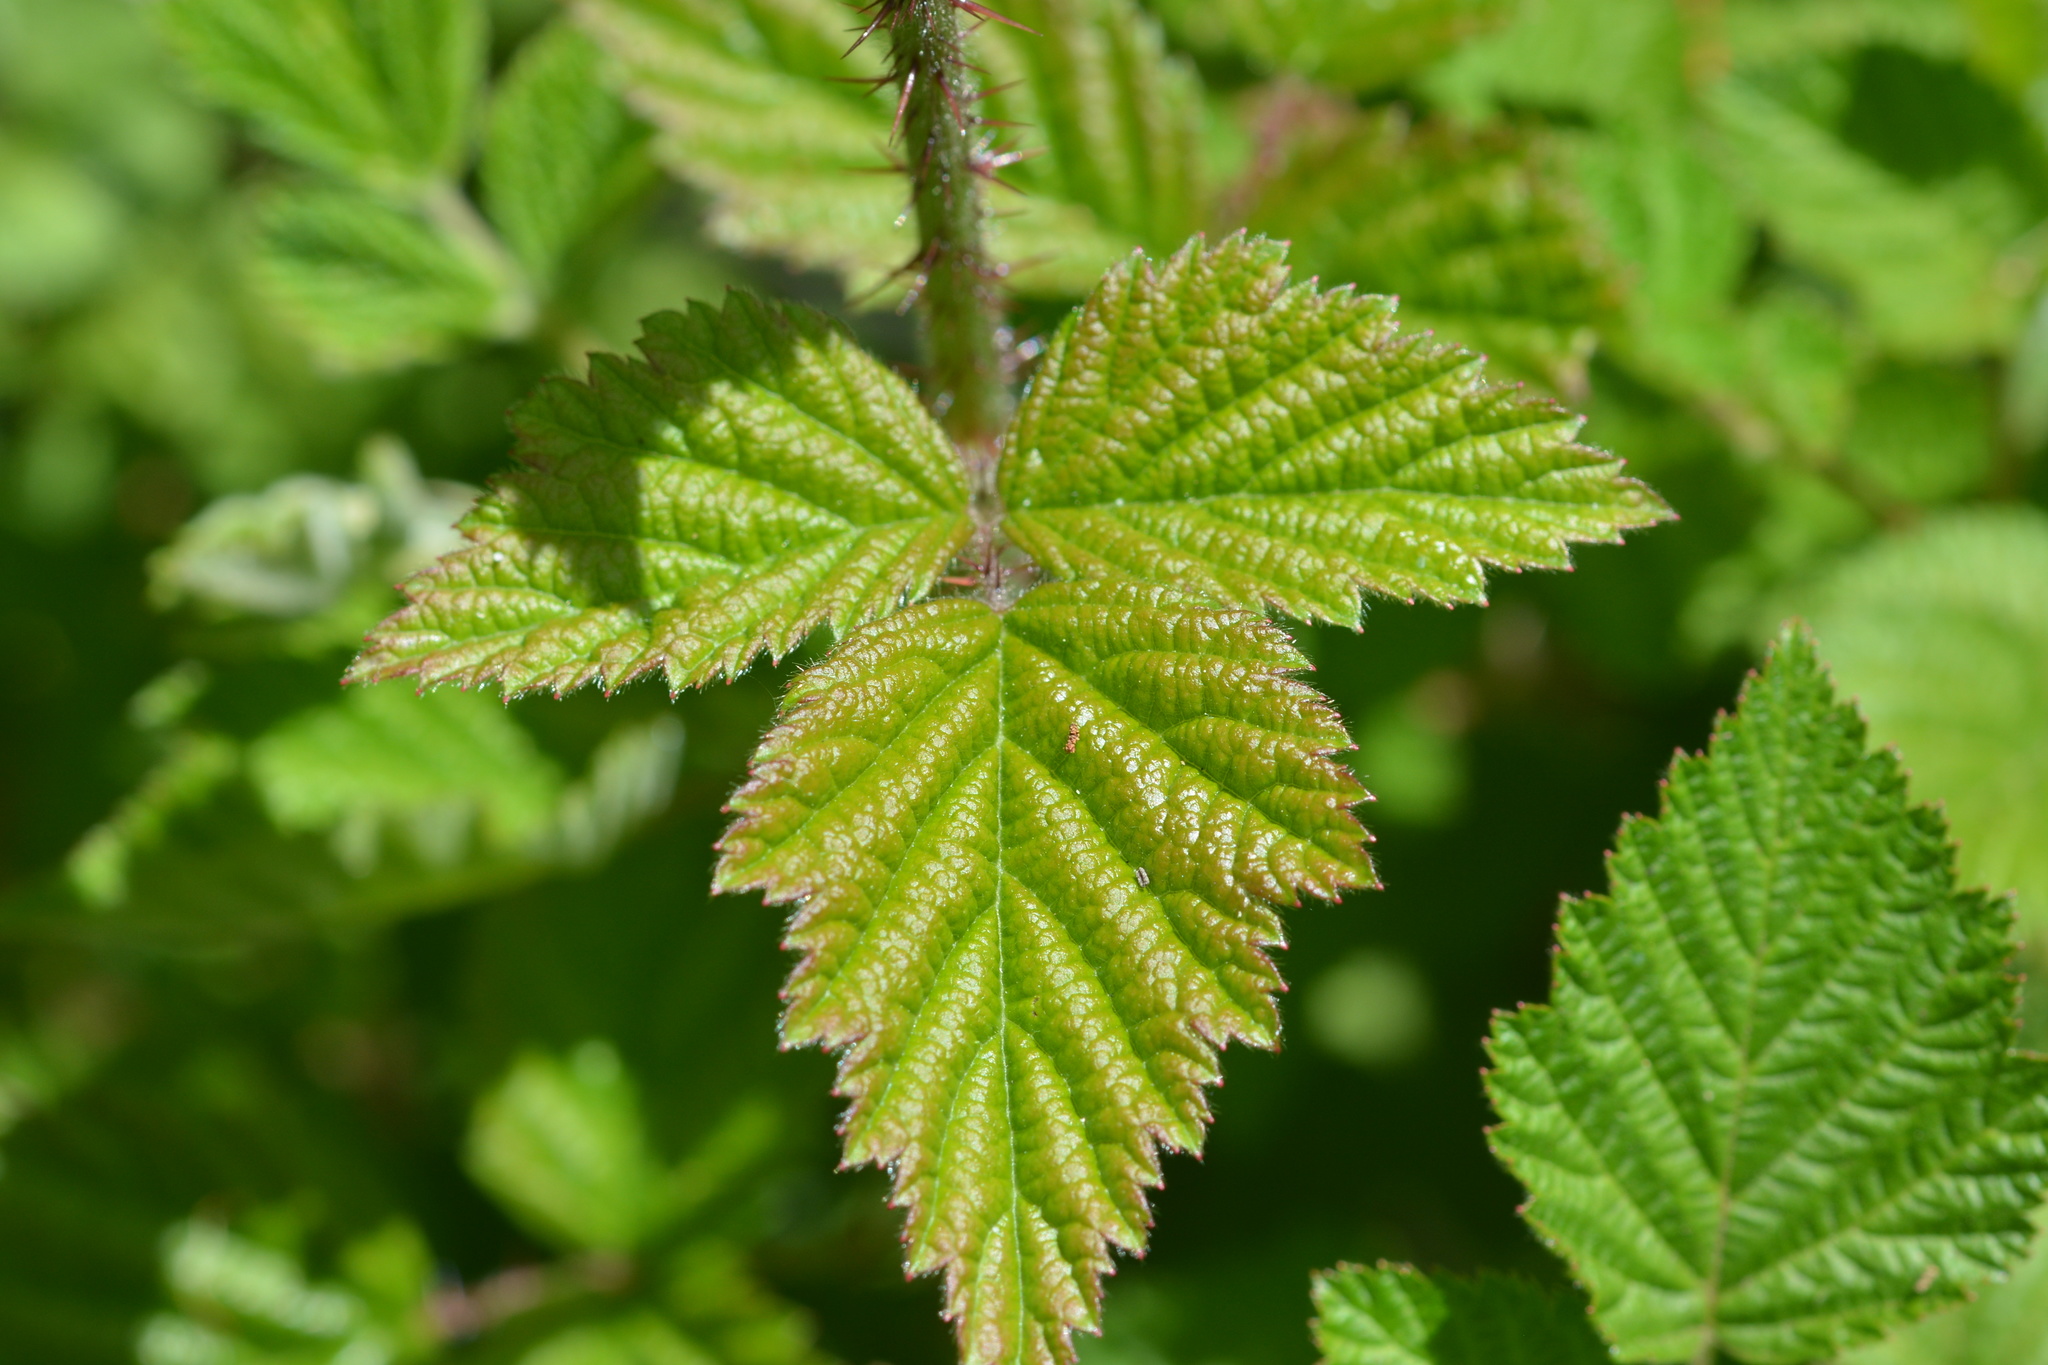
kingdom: Plantae
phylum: Tracheophyta
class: Magnoliopsida
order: Rosales
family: Rosaceae
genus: Rubus
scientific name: Rubus spectabilis
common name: Salmonberry
